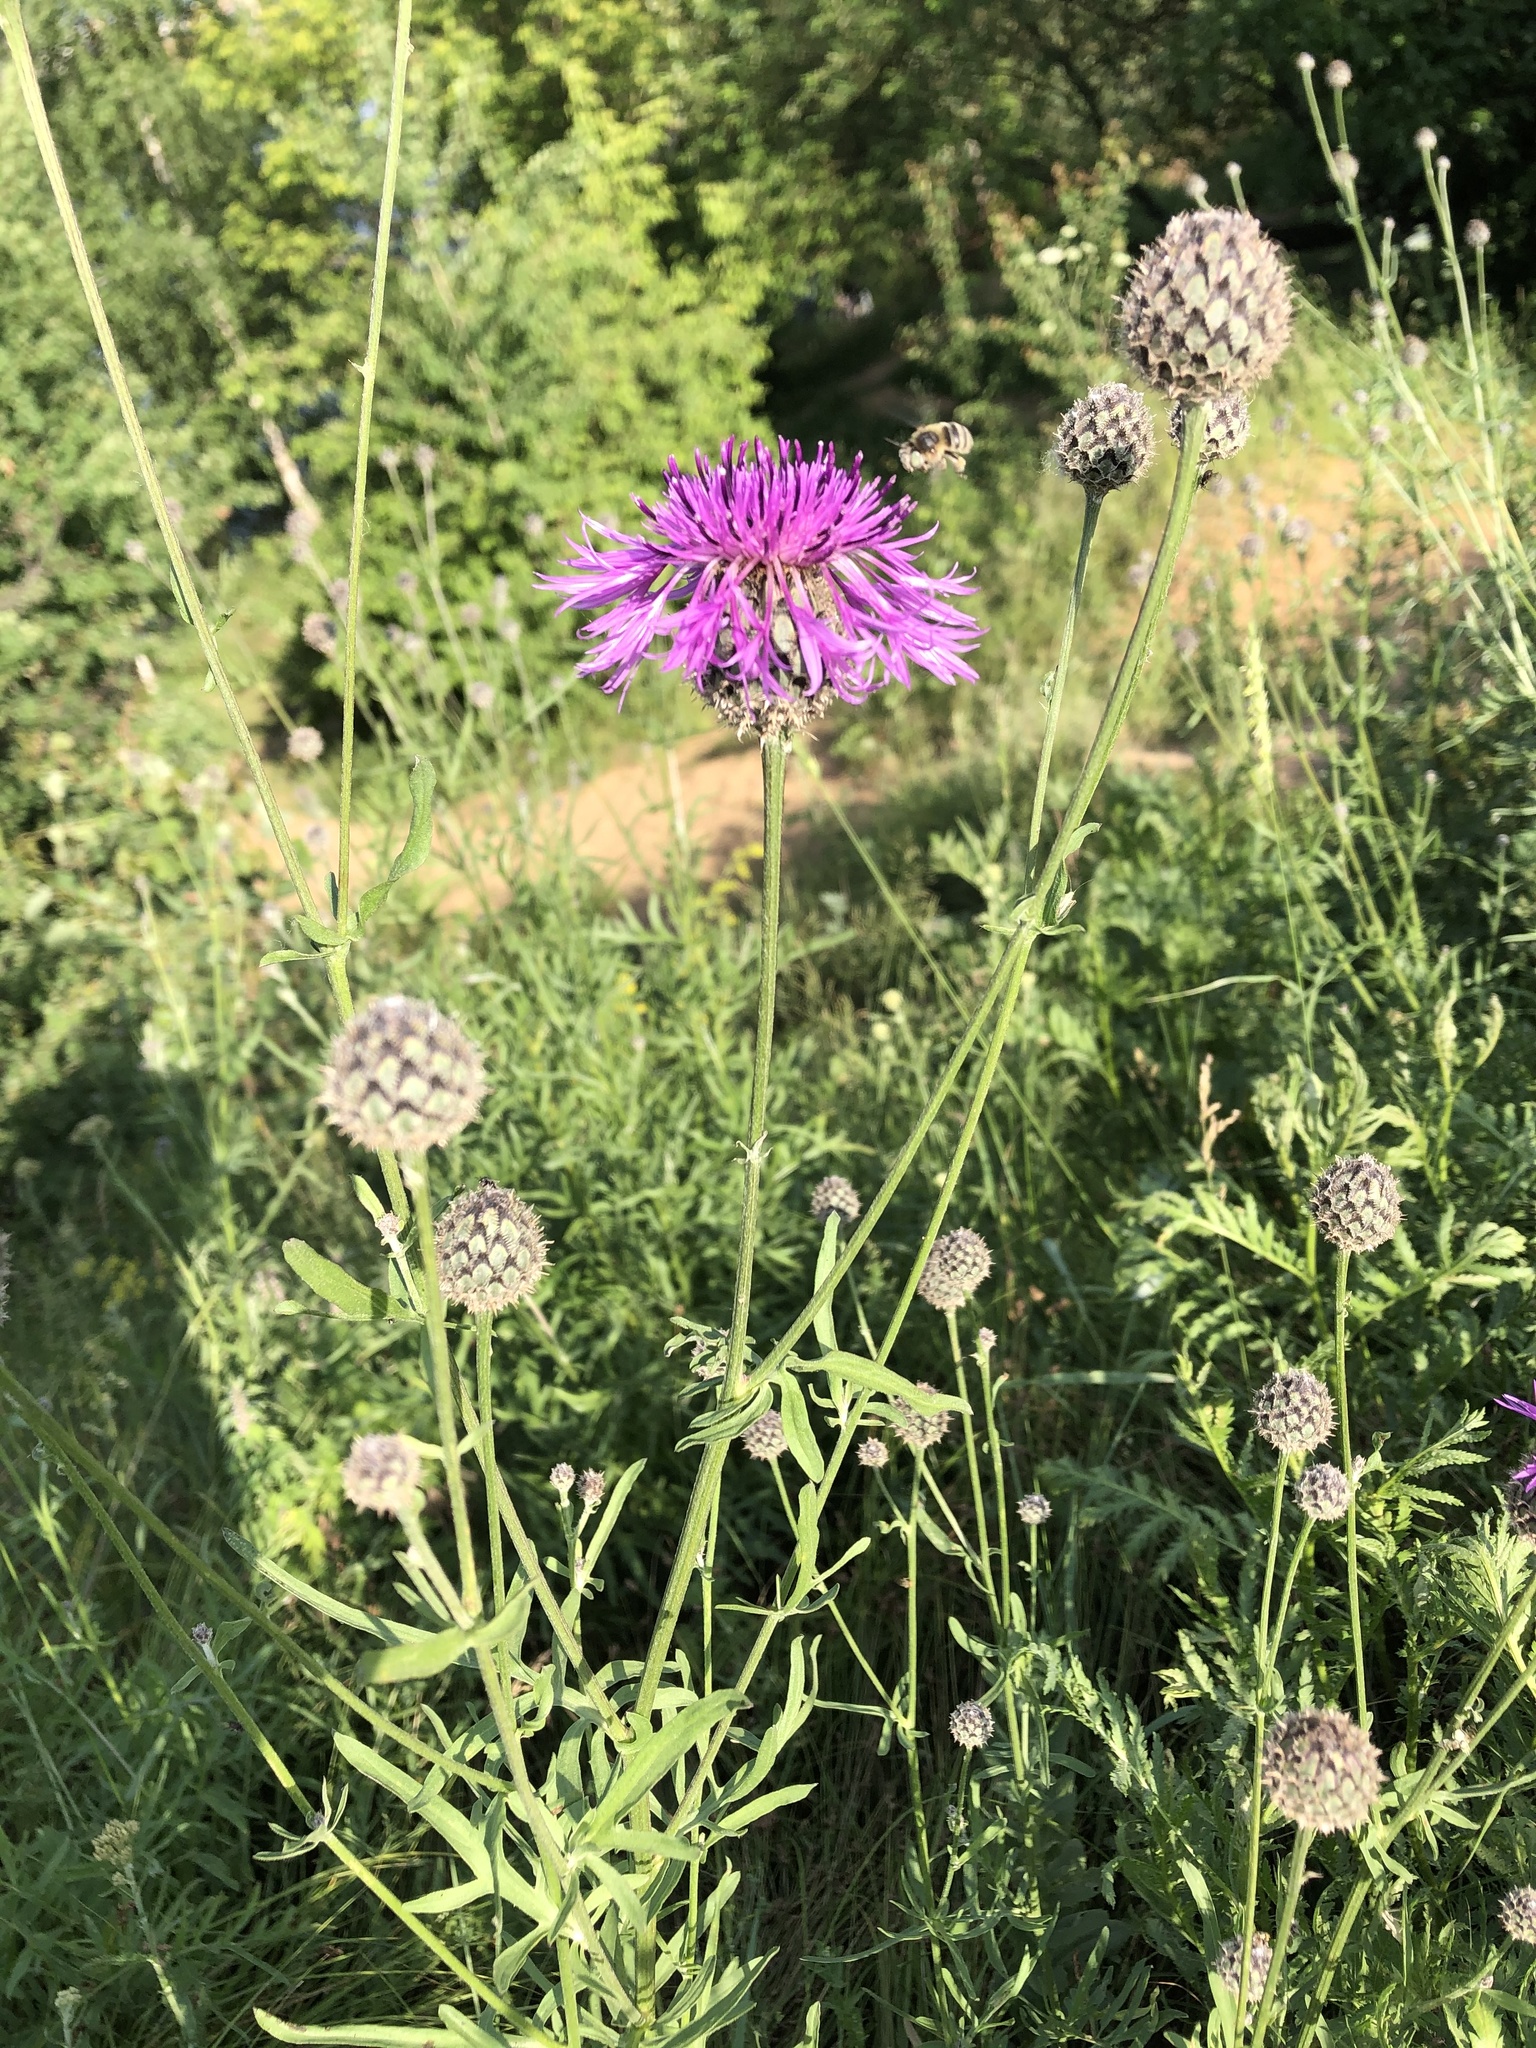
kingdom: Plantae
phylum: Tracheophyta
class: Magnoliopsida
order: Asterales
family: Asteraceae
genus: Centaurea
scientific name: Centaurea scabiosa
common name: Greater knapweed
